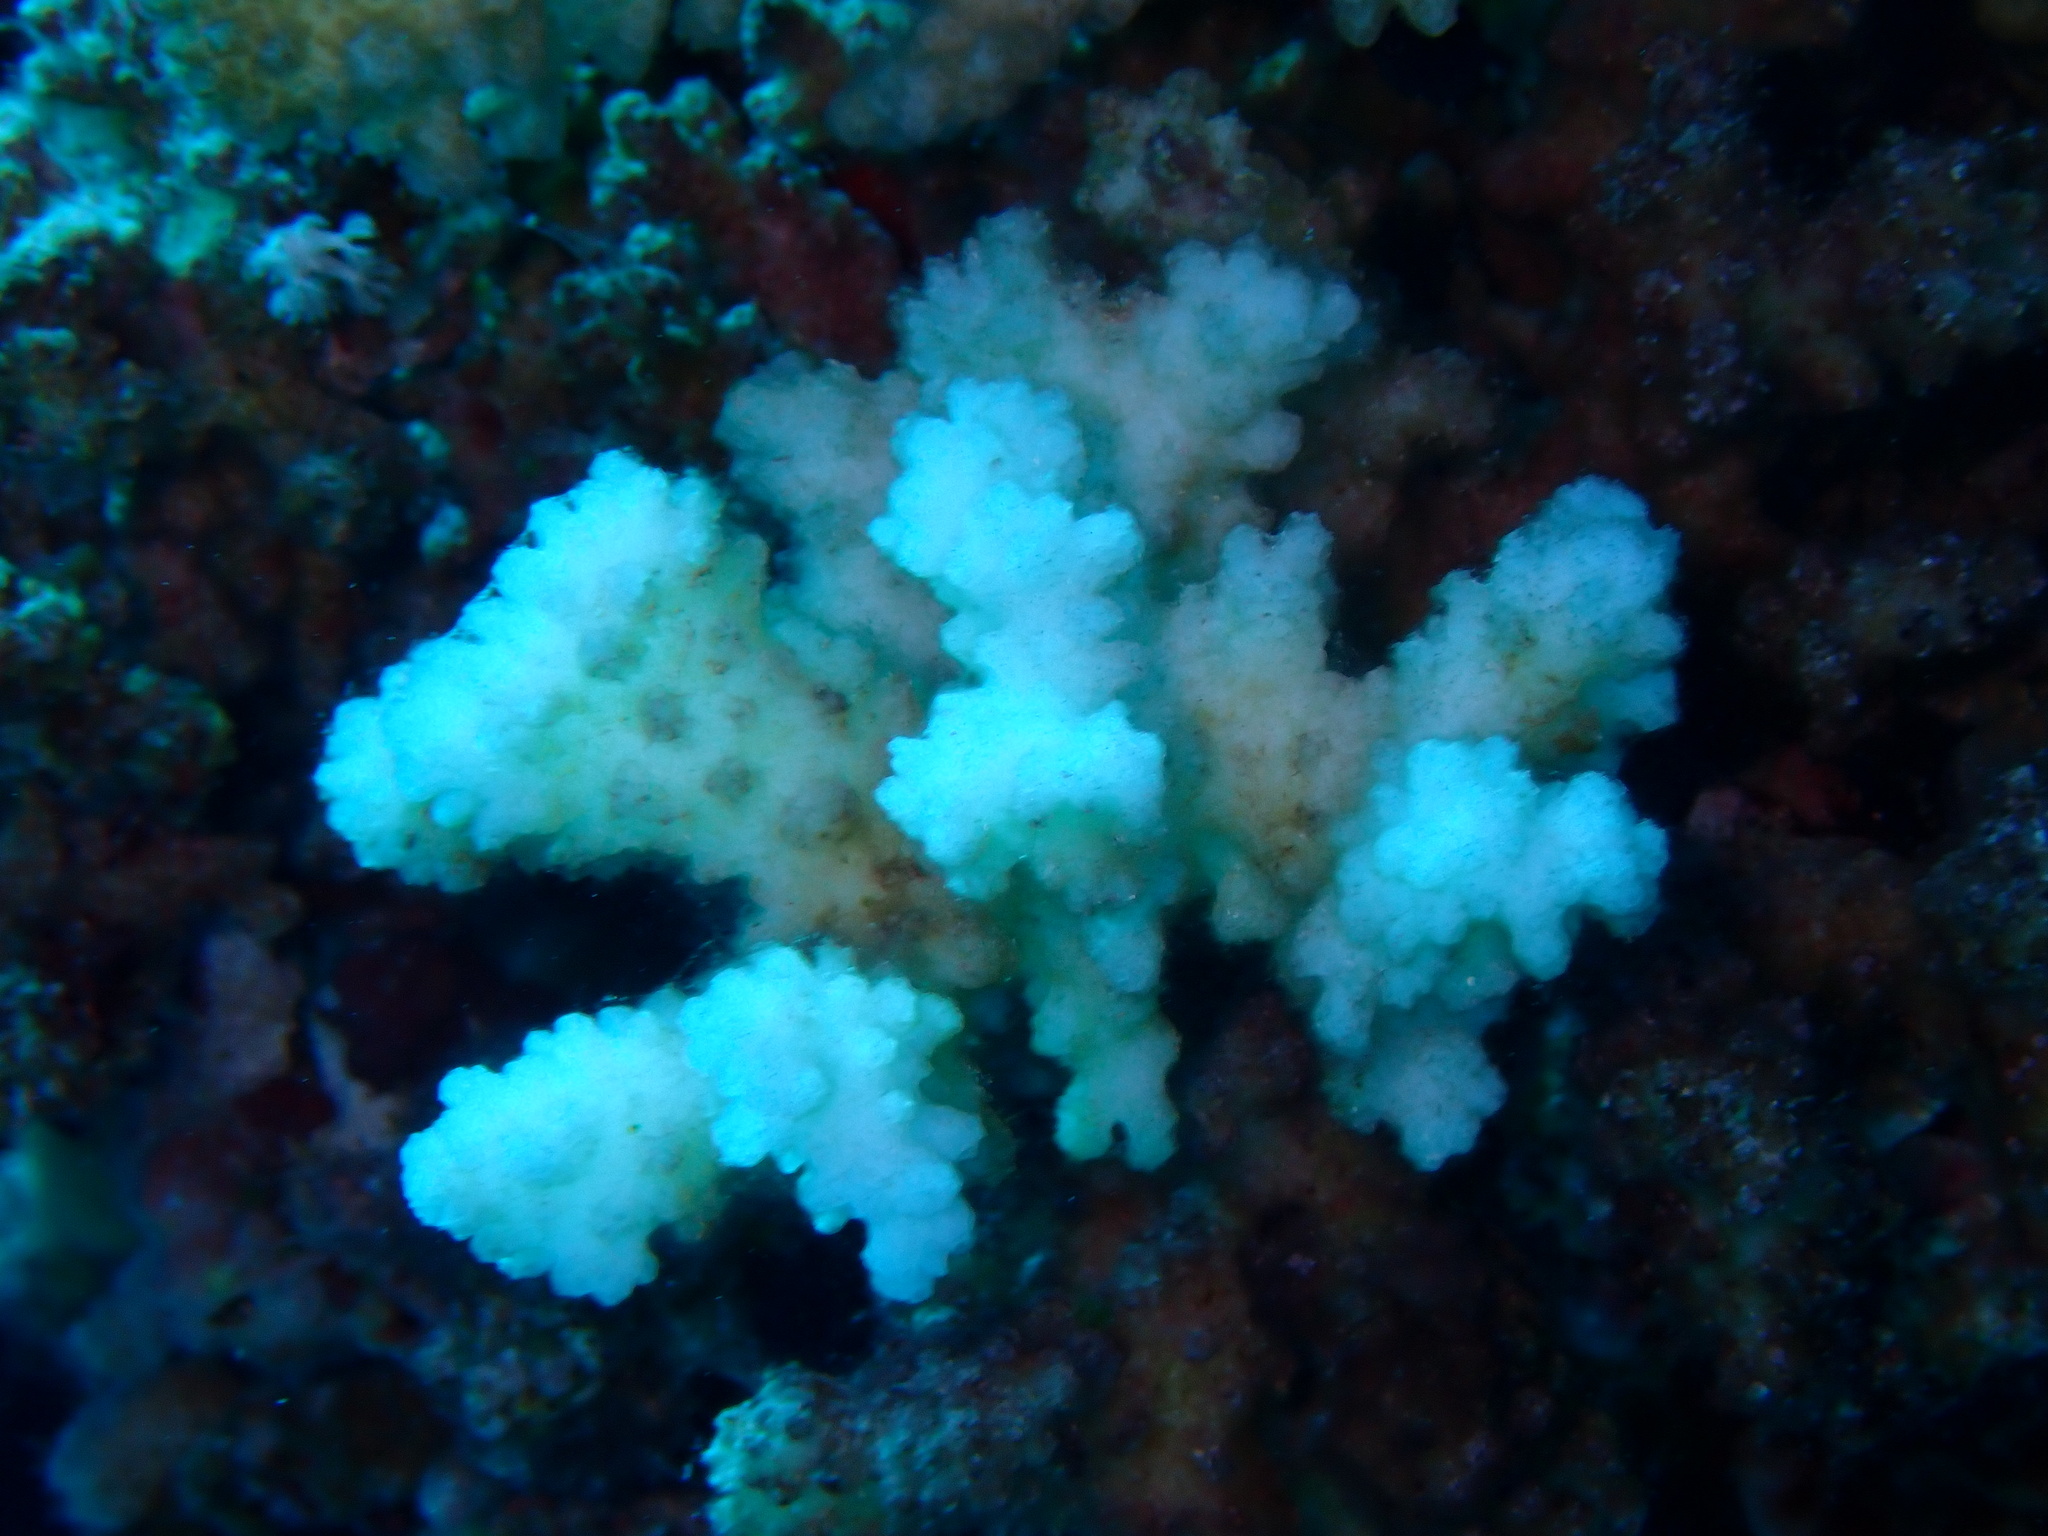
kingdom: Animalia
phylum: Cnidaria
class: Anthozoa
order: Scleractinia
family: Pocilloporidae
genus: Pocillopora
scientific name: Pocillopora verrucosa
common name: Cauliflower coral
